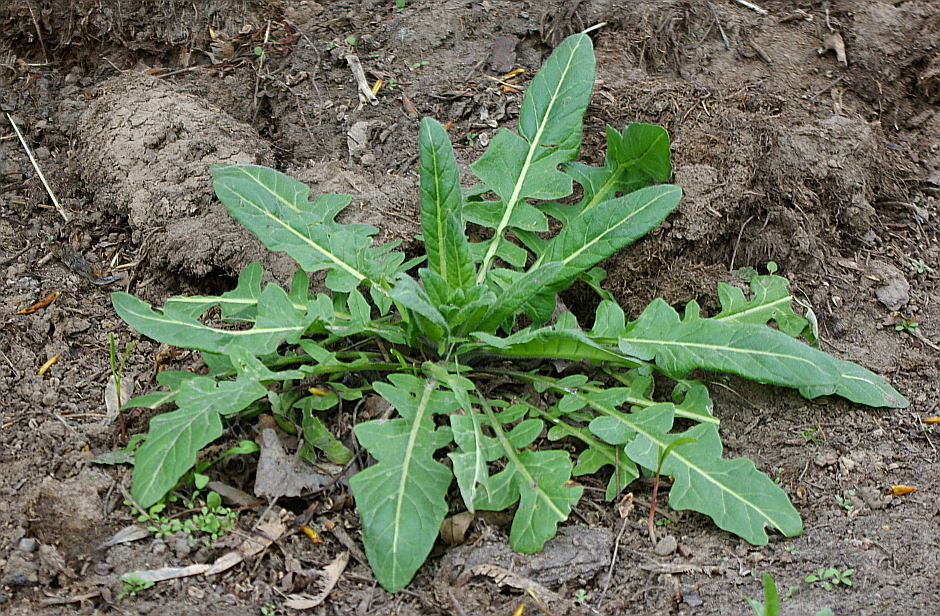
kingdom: Plantae
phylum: Tracheophyta
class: Magnoliopsida
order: Brassicales
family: Brassicaceae
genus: Sisymbrium
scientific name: Sisymbrium loeselii
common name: False london-rocket
